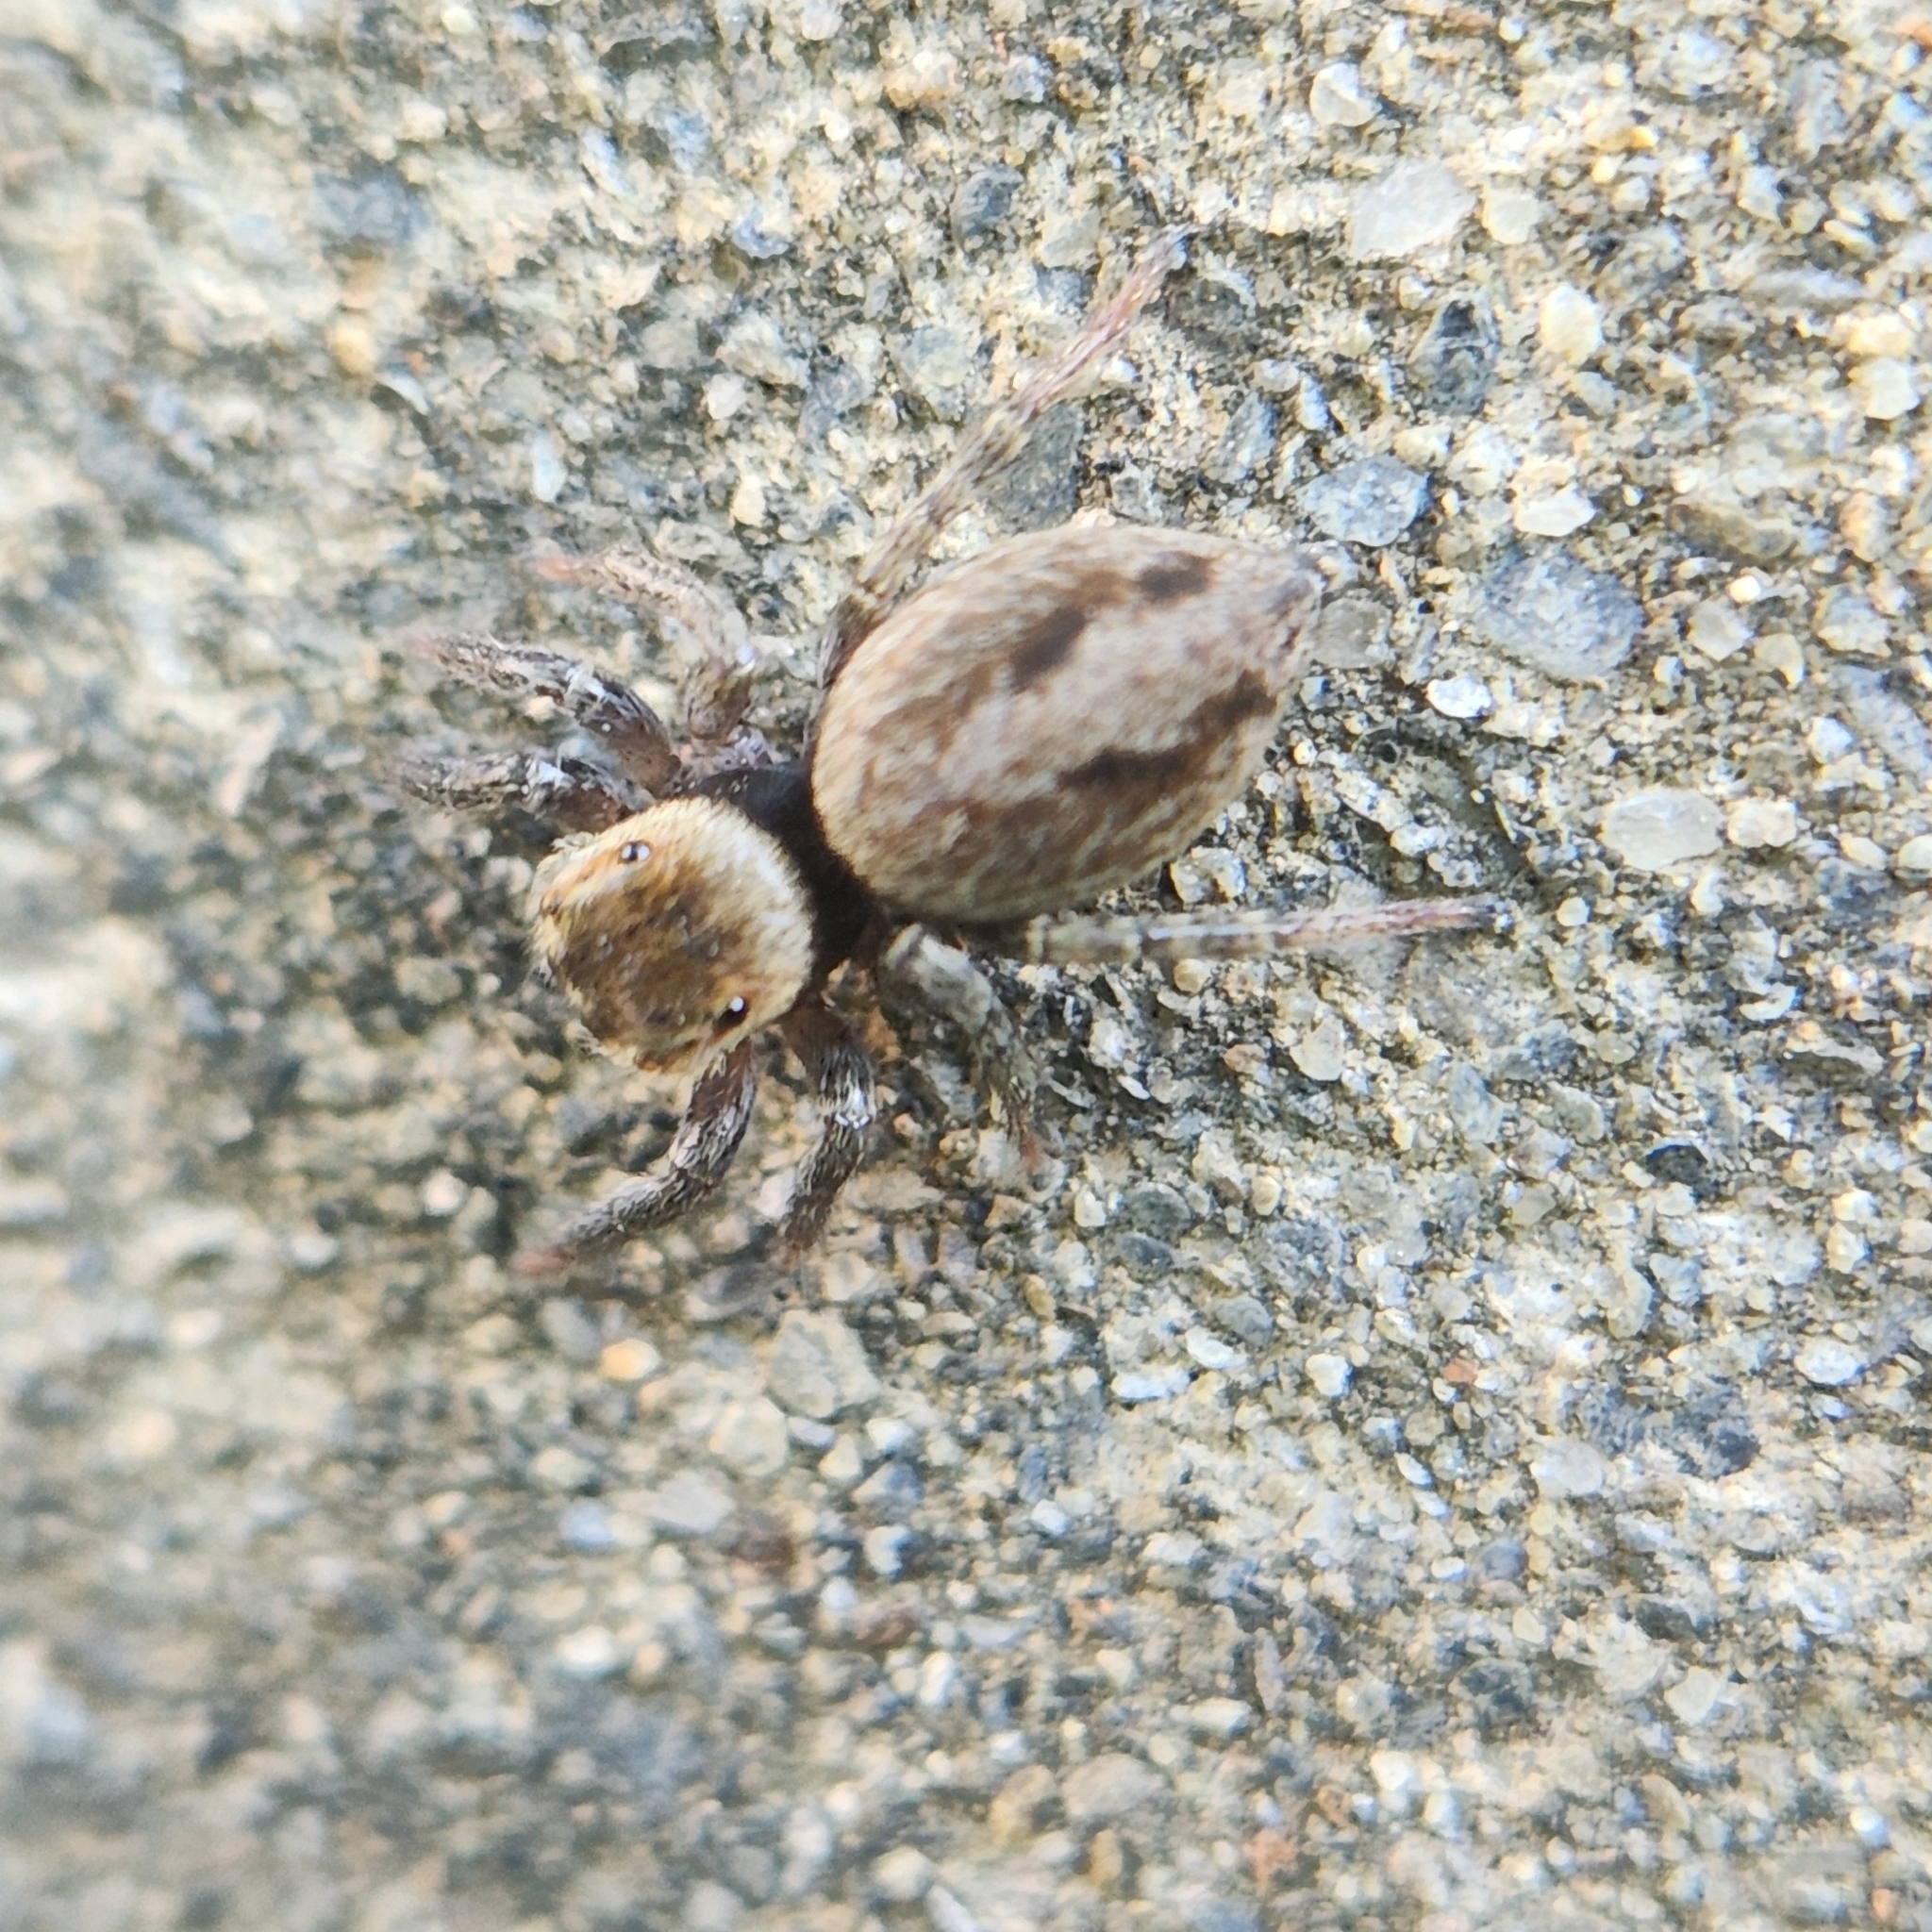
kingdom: Animalia
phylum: Arthropoda
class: Arachnida
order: Araneae
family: Salticidae
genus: Hasarius
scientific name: Hasarius adansoni
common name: Jumping spider
